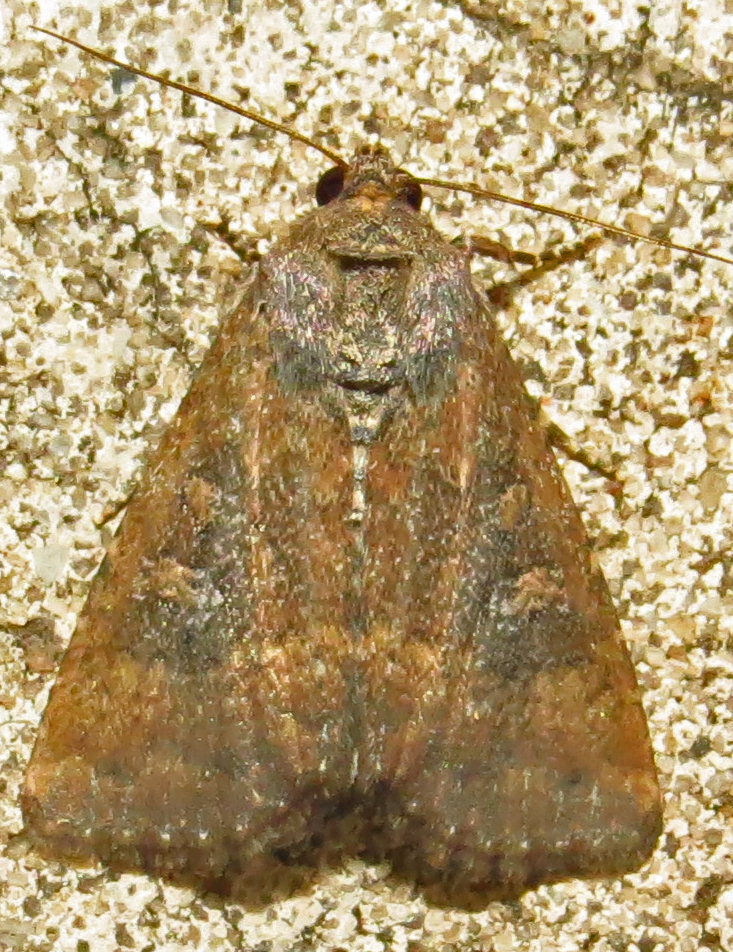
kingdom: Animalia
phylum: Arthropoda
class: Insecta
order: Lepidoptera
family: Noctuidae
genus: Condica
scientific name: Condica sutor
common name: Cobbler moth
